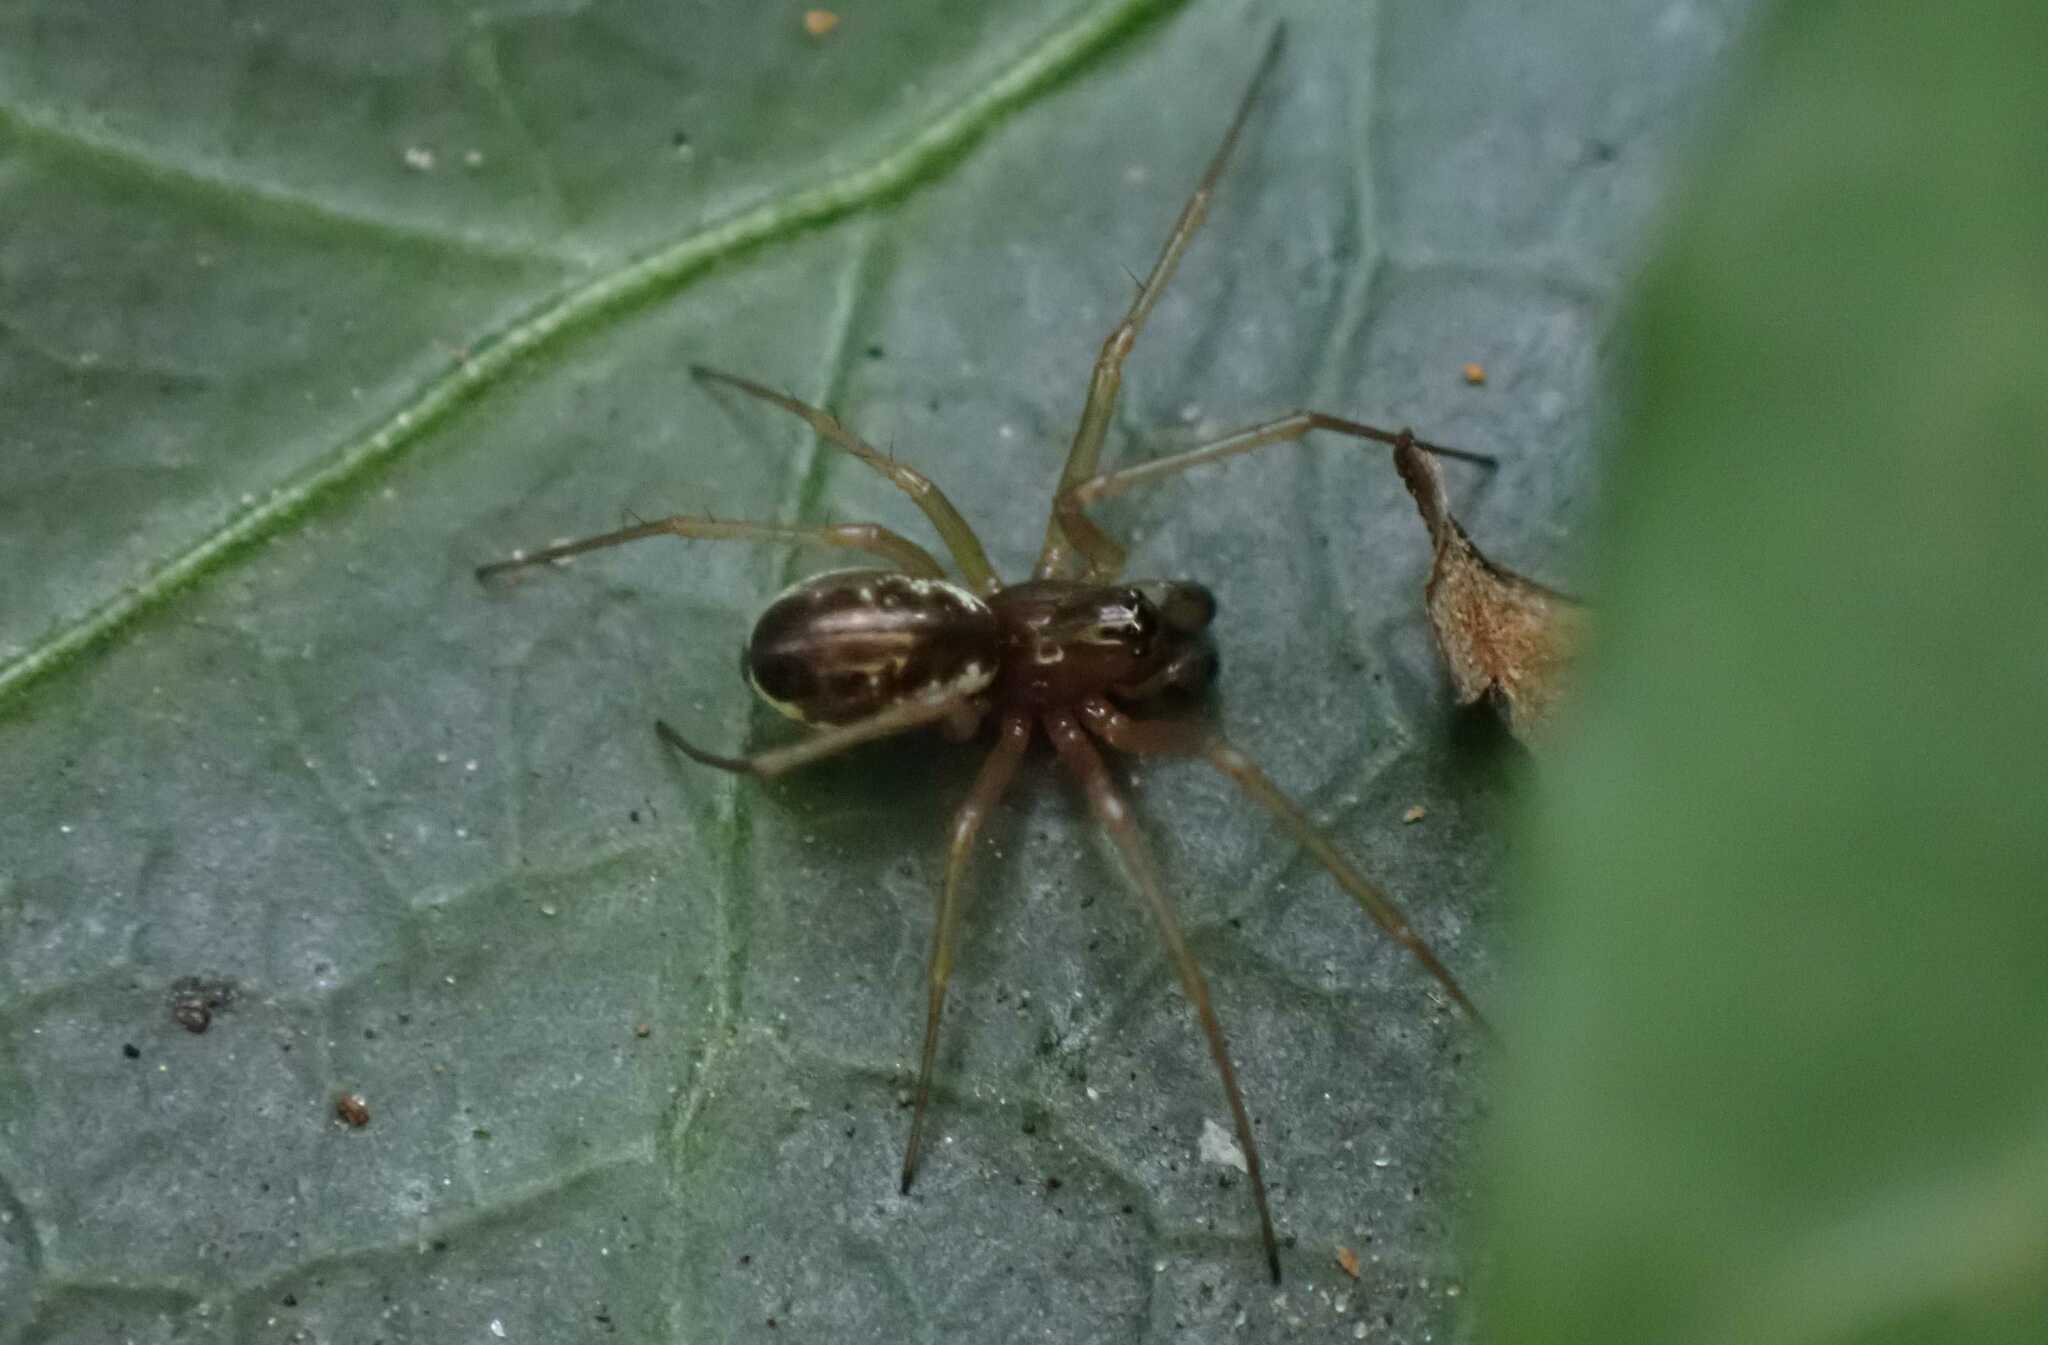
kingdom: Animalia
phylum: Arthropoda
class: Arachnida
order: Araneae
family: Linyphiidae
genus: Linyphia
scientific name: Linyphia hortensis
